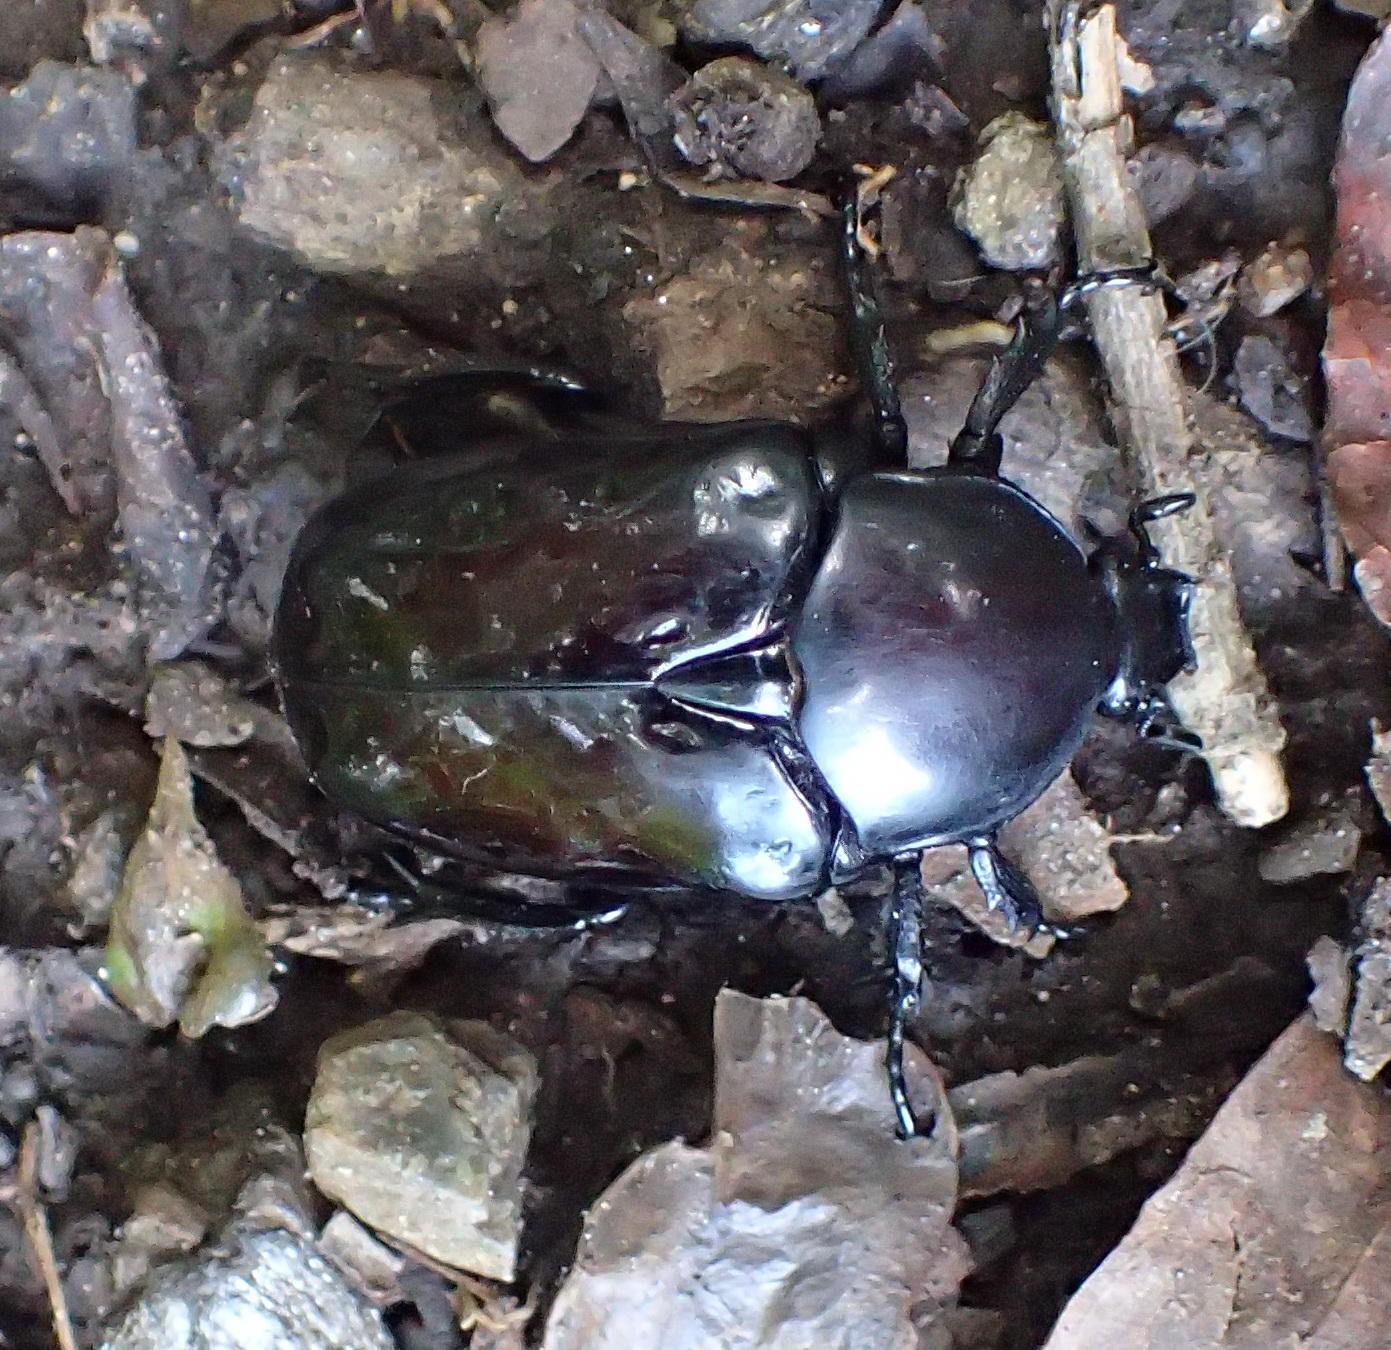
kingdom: Animalia
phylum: Arthropoda
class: Insecta
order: Coleoptera
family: Scarabaeidae
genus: Diplognatha
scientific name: Diplognatha gagates
